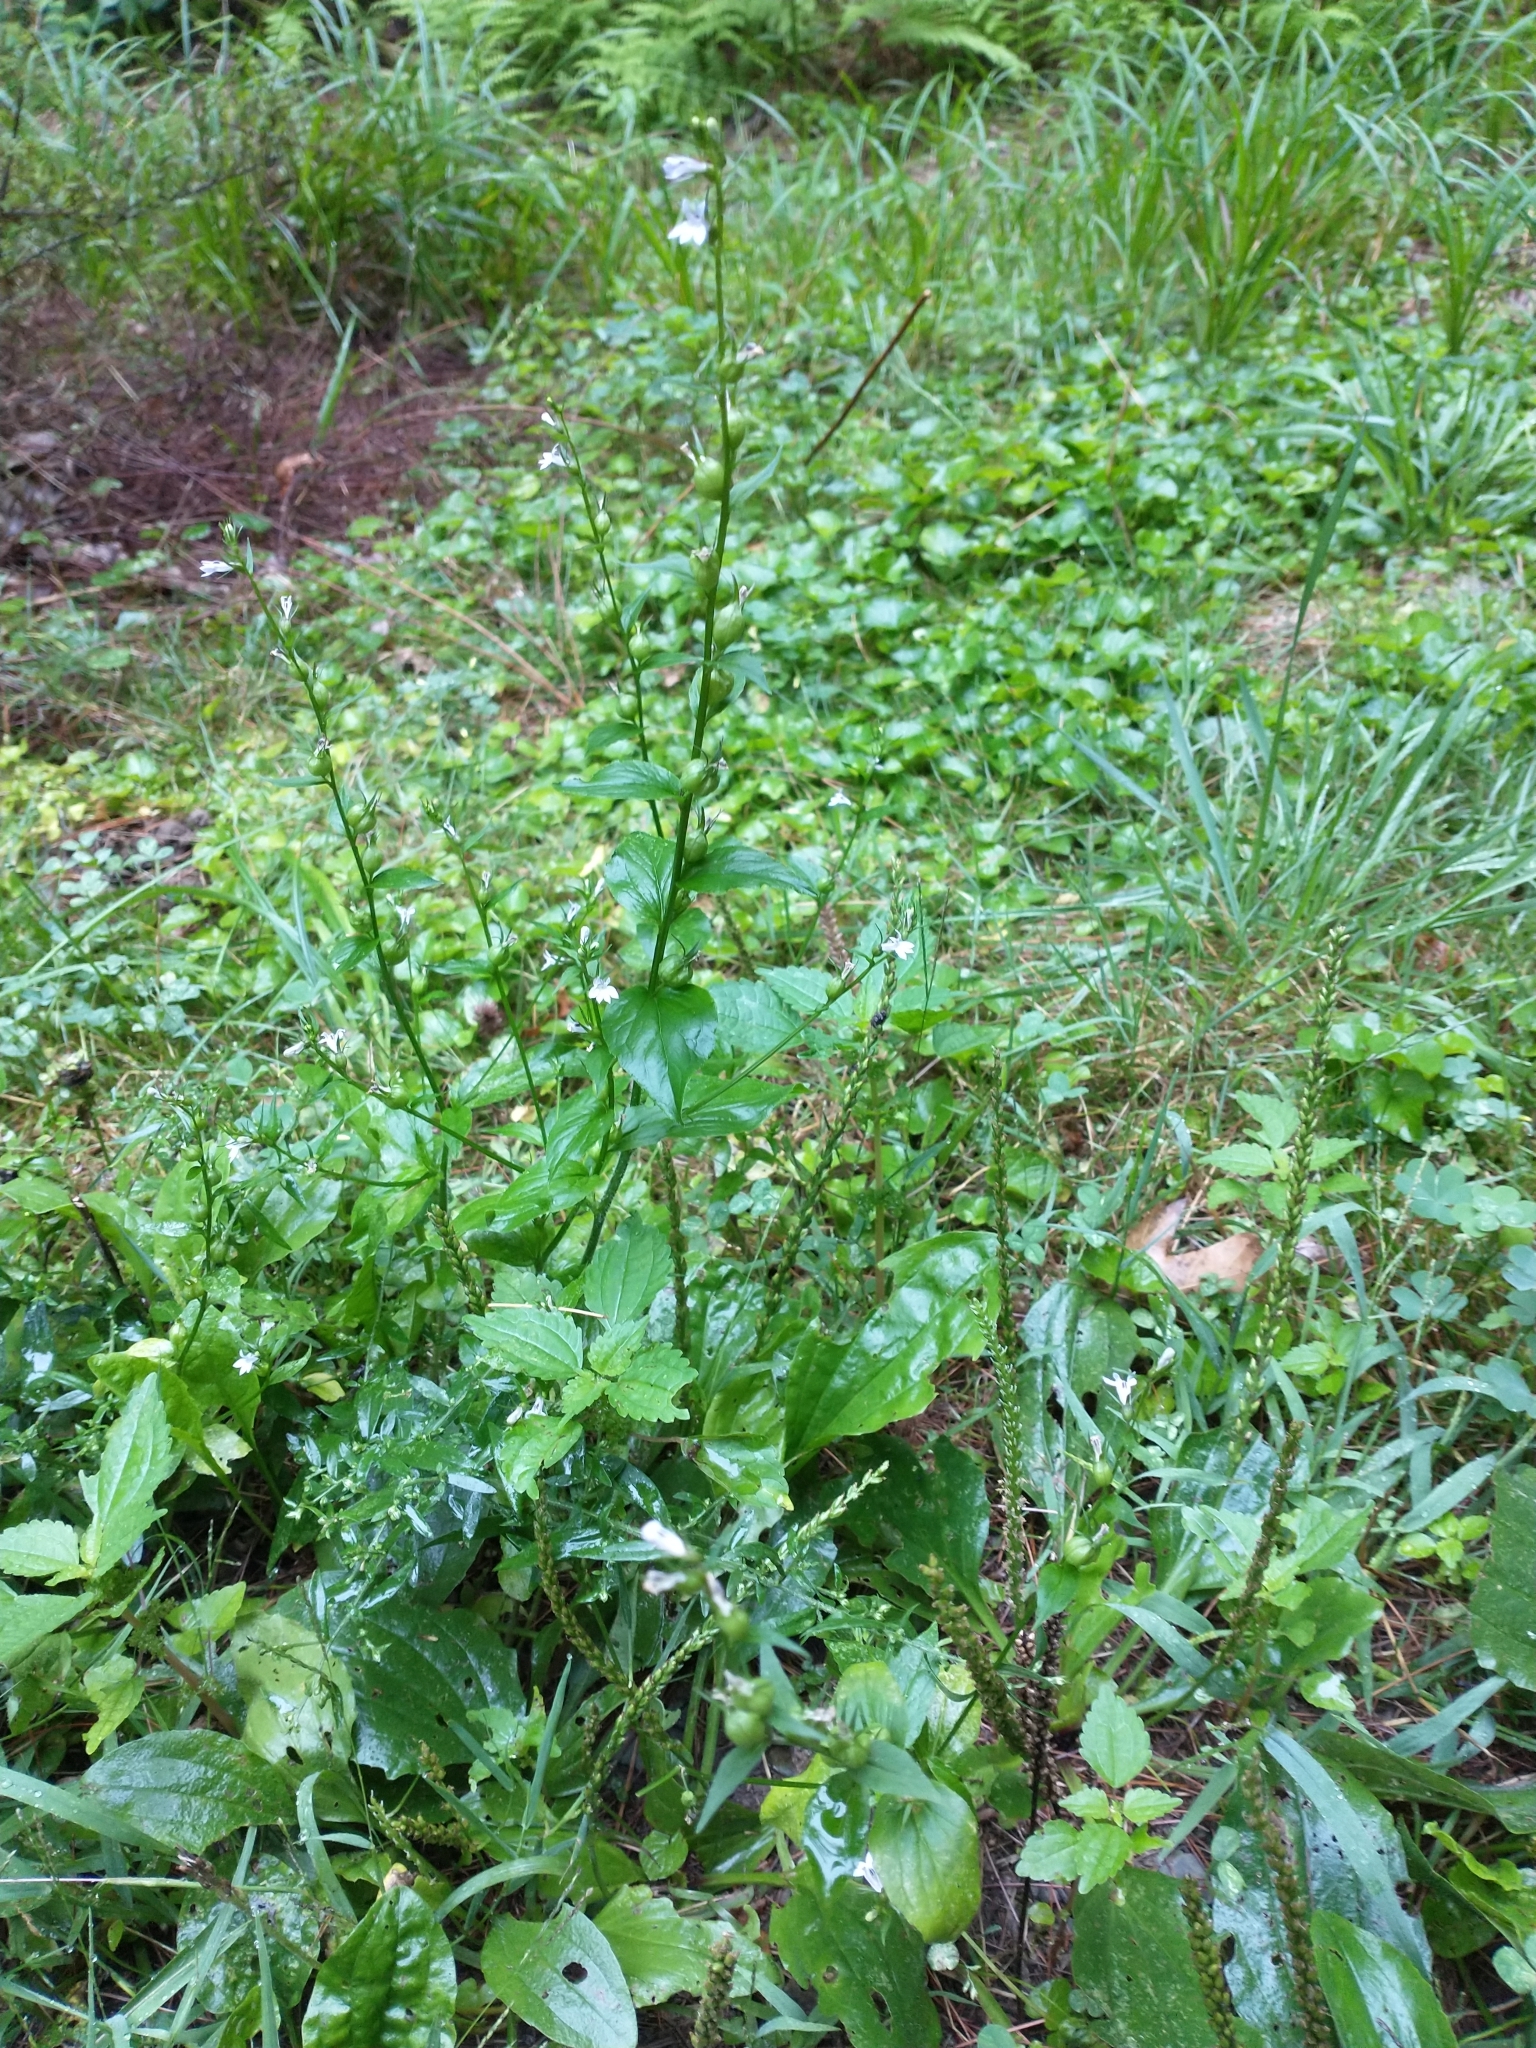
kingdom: Plantae
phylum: Tracheophyta
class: Magnoliopsida
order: Asterales
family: Campanulaceae
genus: Lobelia
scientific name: Lobelia inflata
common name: Indian tobacco
